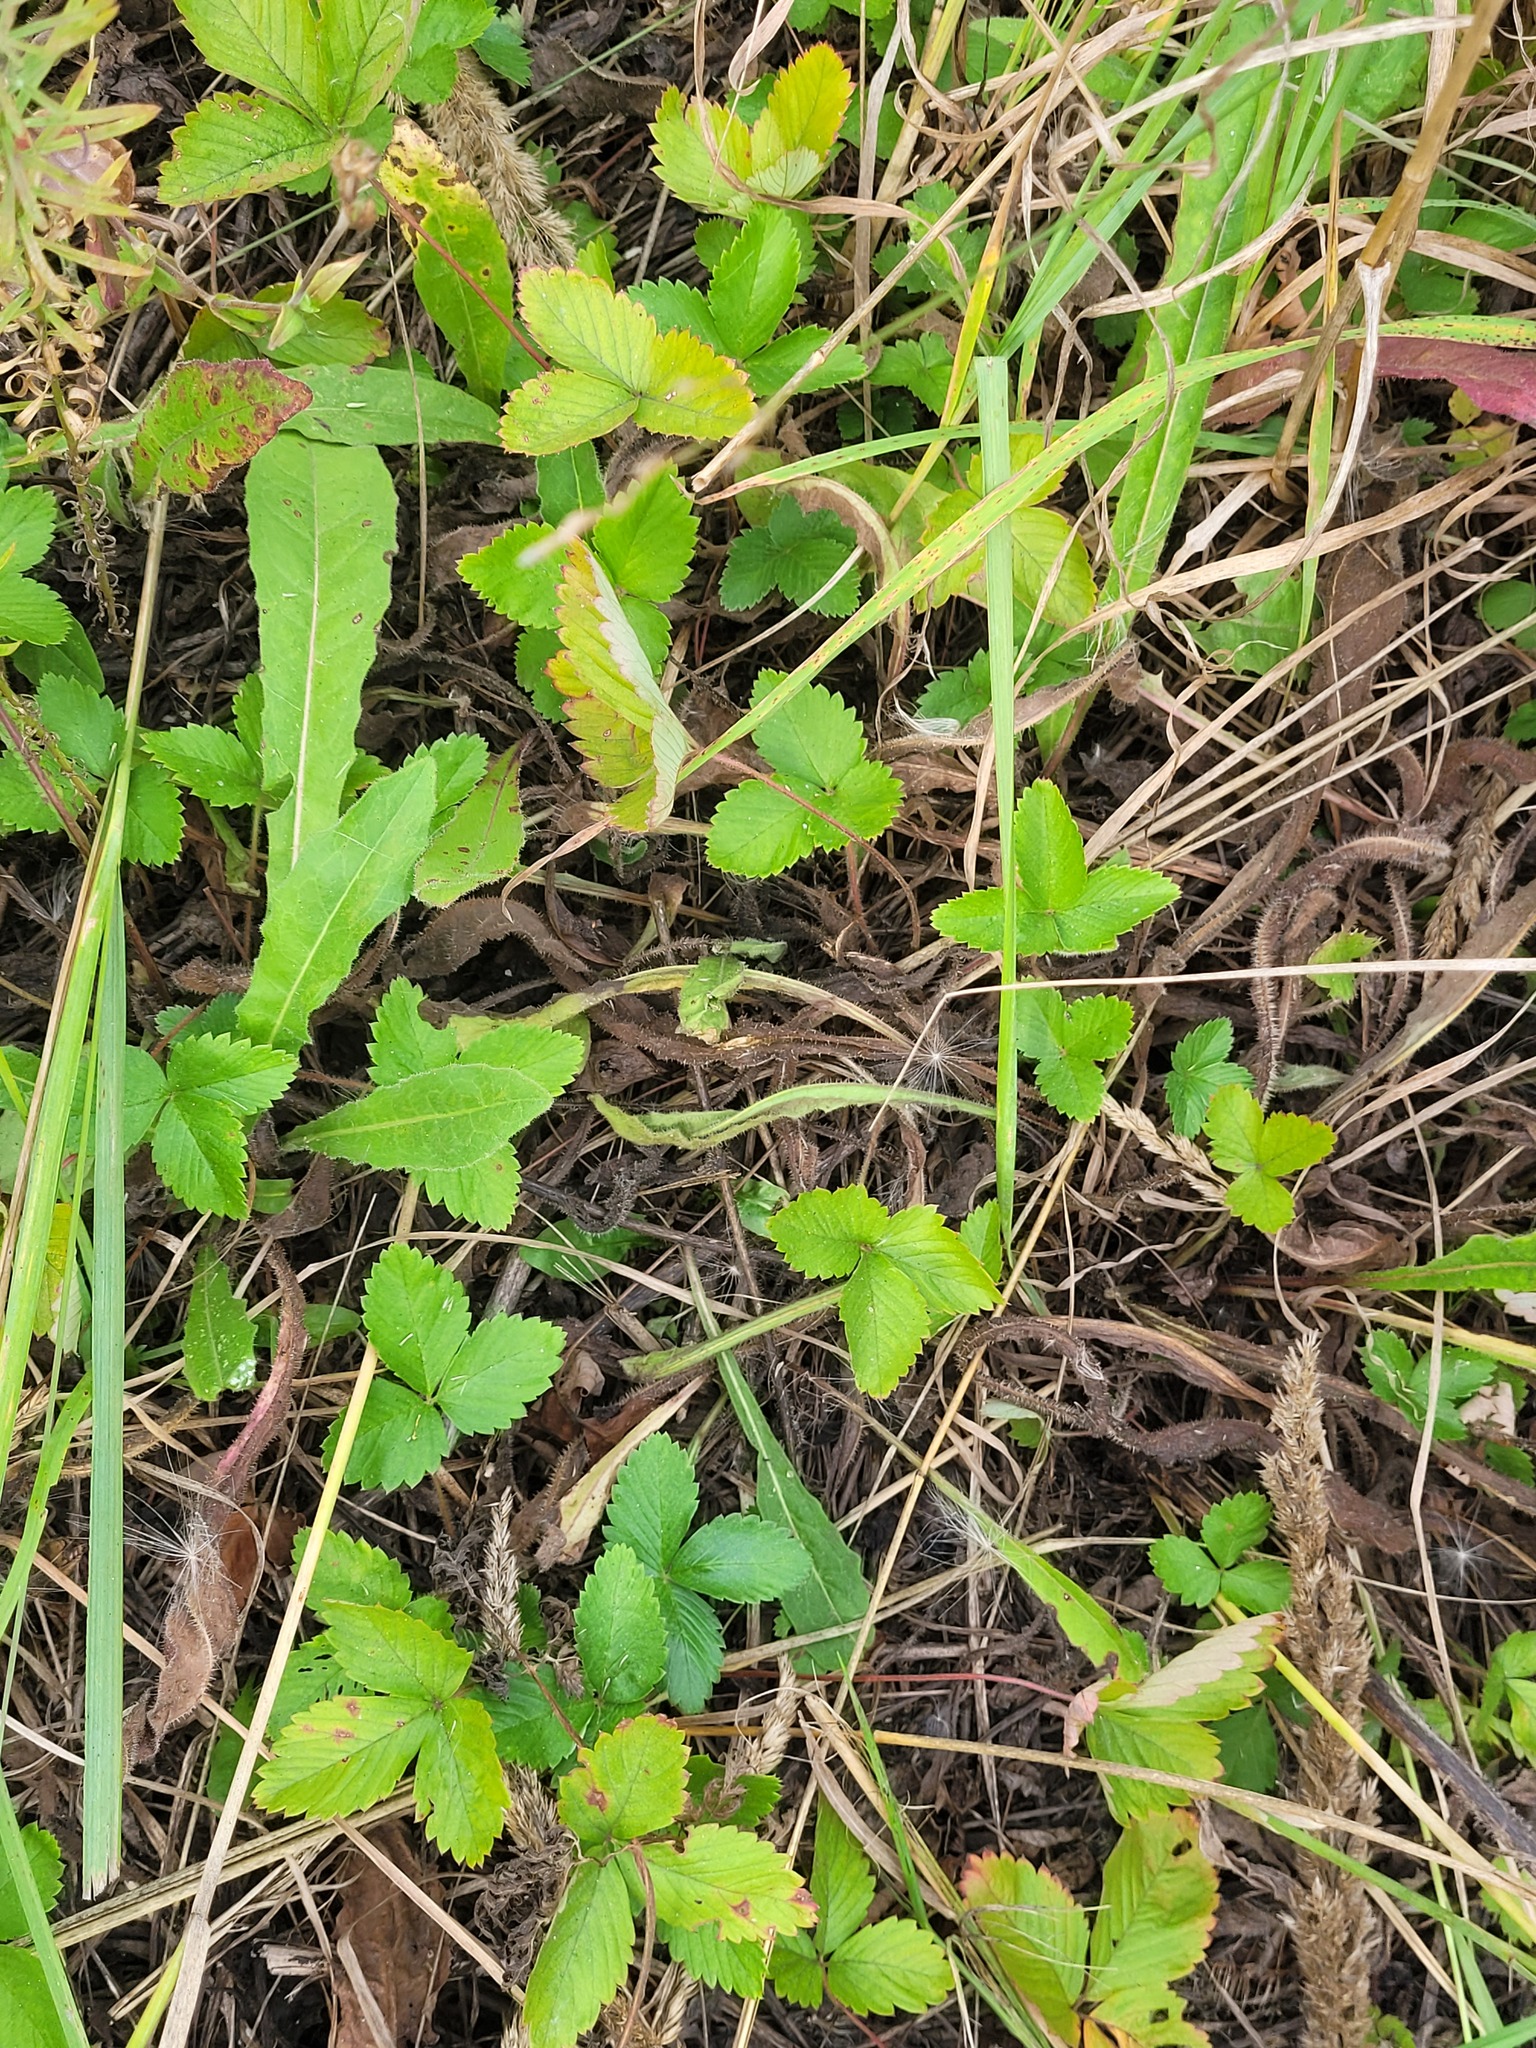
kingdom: Plantae
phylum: Tracheophyta
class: Magnoliopsida
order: Rosales
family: Rosaceae
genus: Fragaria
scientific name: Fragaria vesca
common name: Wild strawberry
